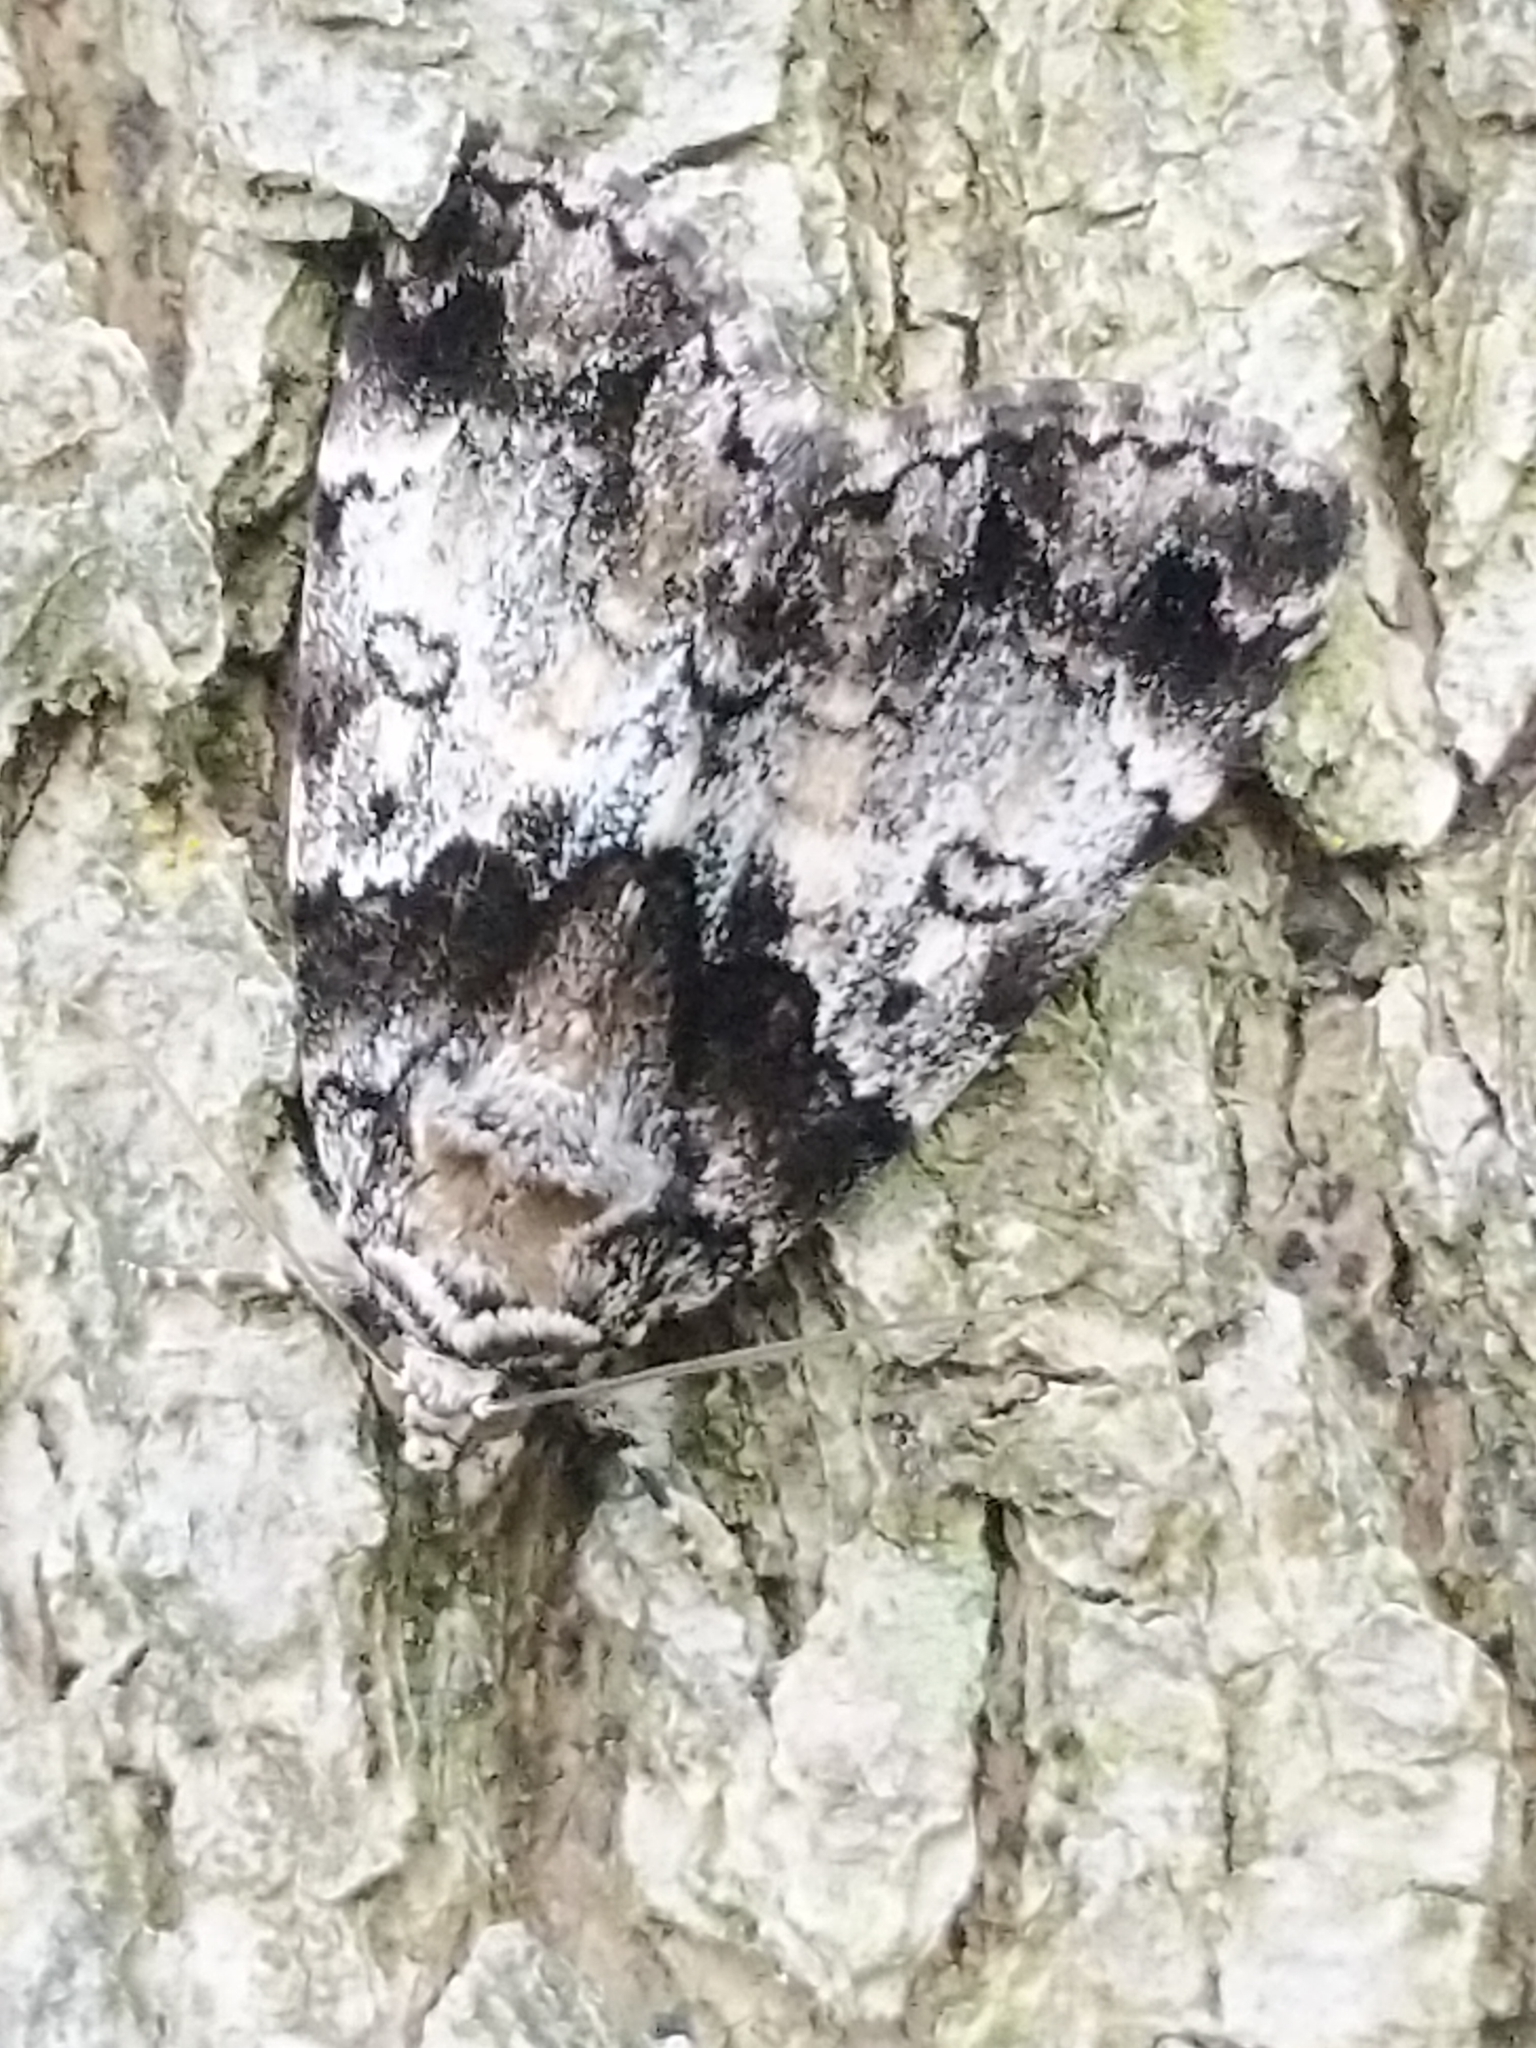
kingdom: Animalia
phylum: Arthropoda
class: Insecta
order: Lepidoptera
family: Erebidae
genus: Allotria
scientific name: Allotria elonympha
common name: False underwing
